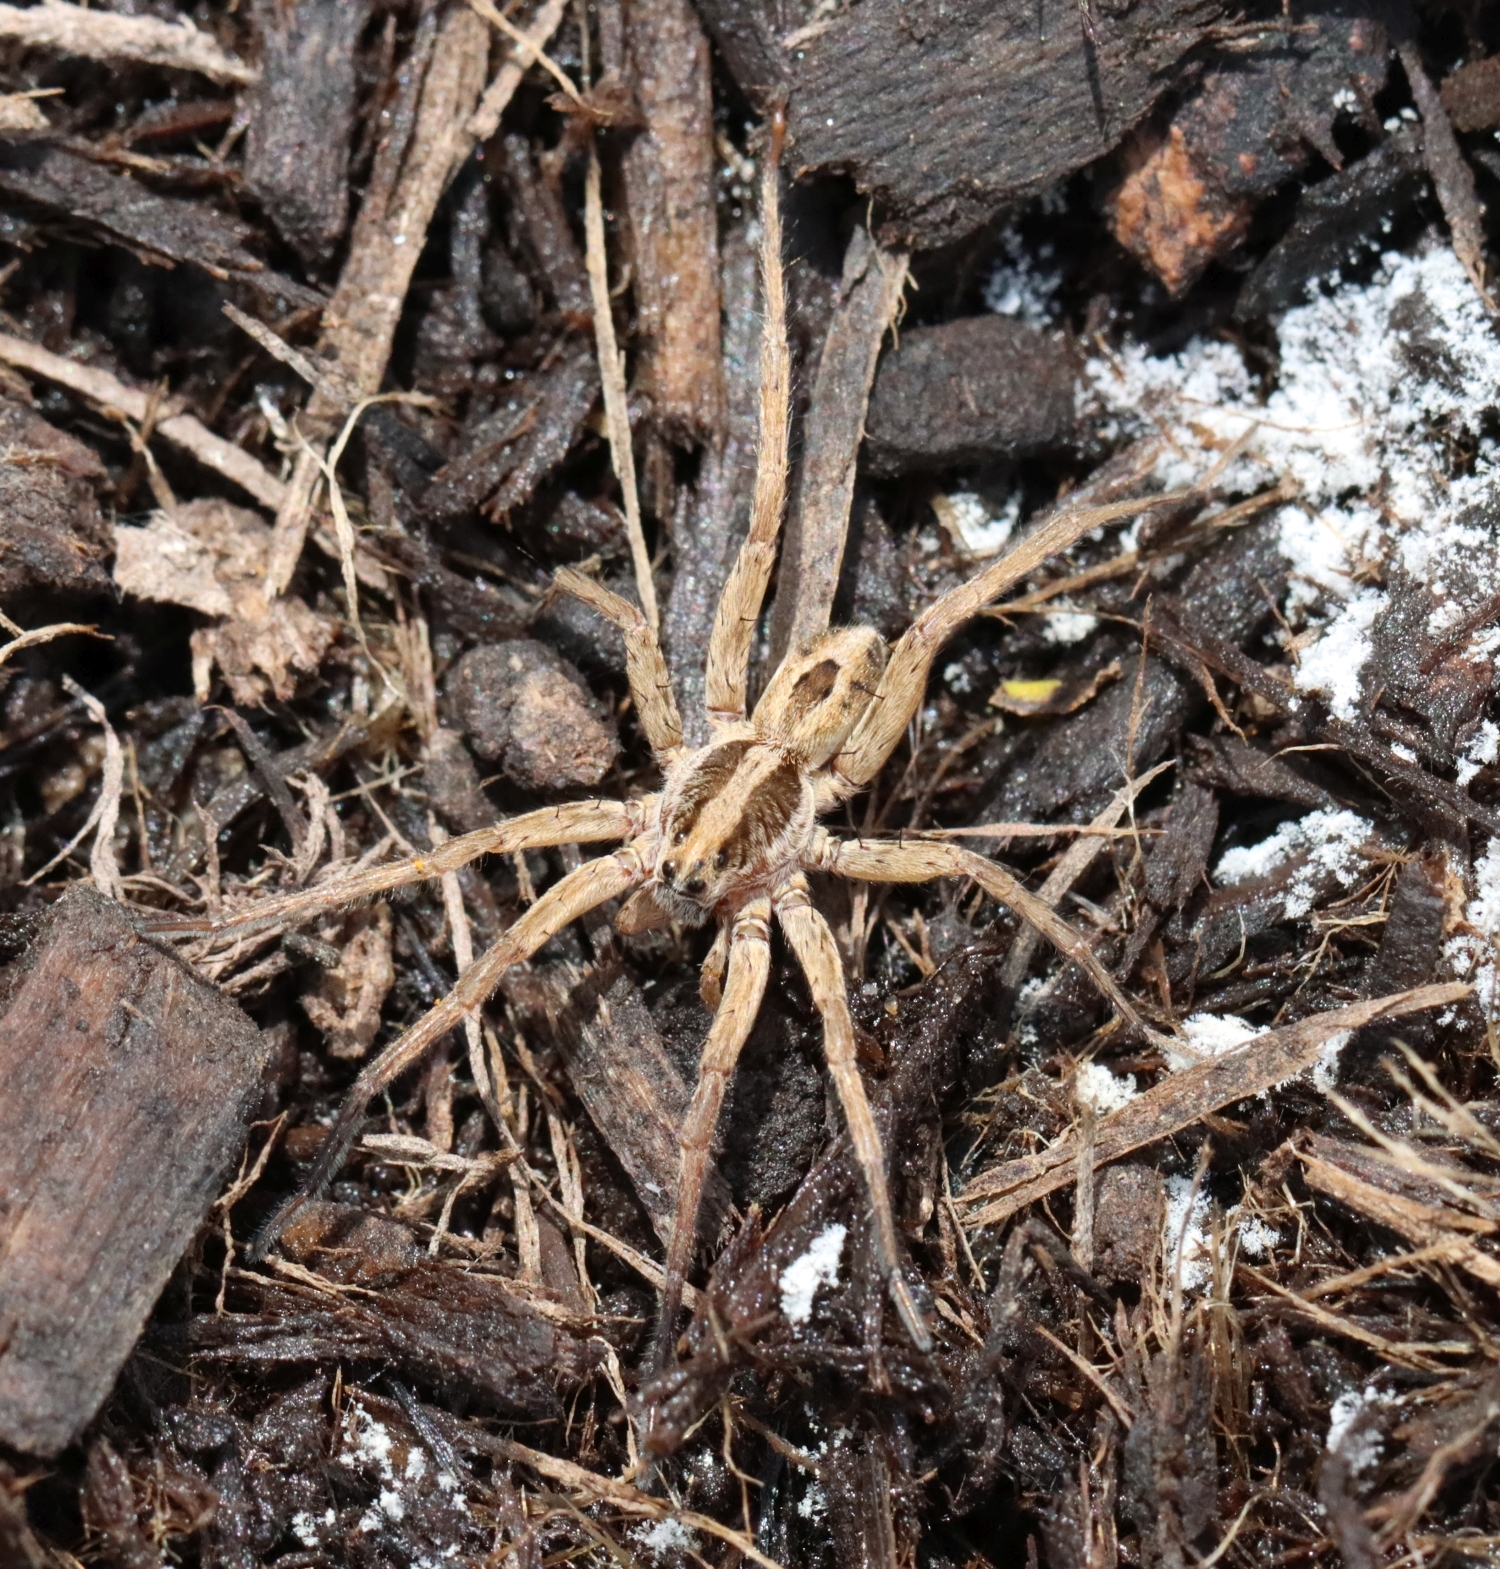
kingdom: Animalia
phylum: Arthropoda
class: Arachnida
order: Araneae
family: Lycosidae
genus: Schizocosa
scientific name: Schizocosa avida
